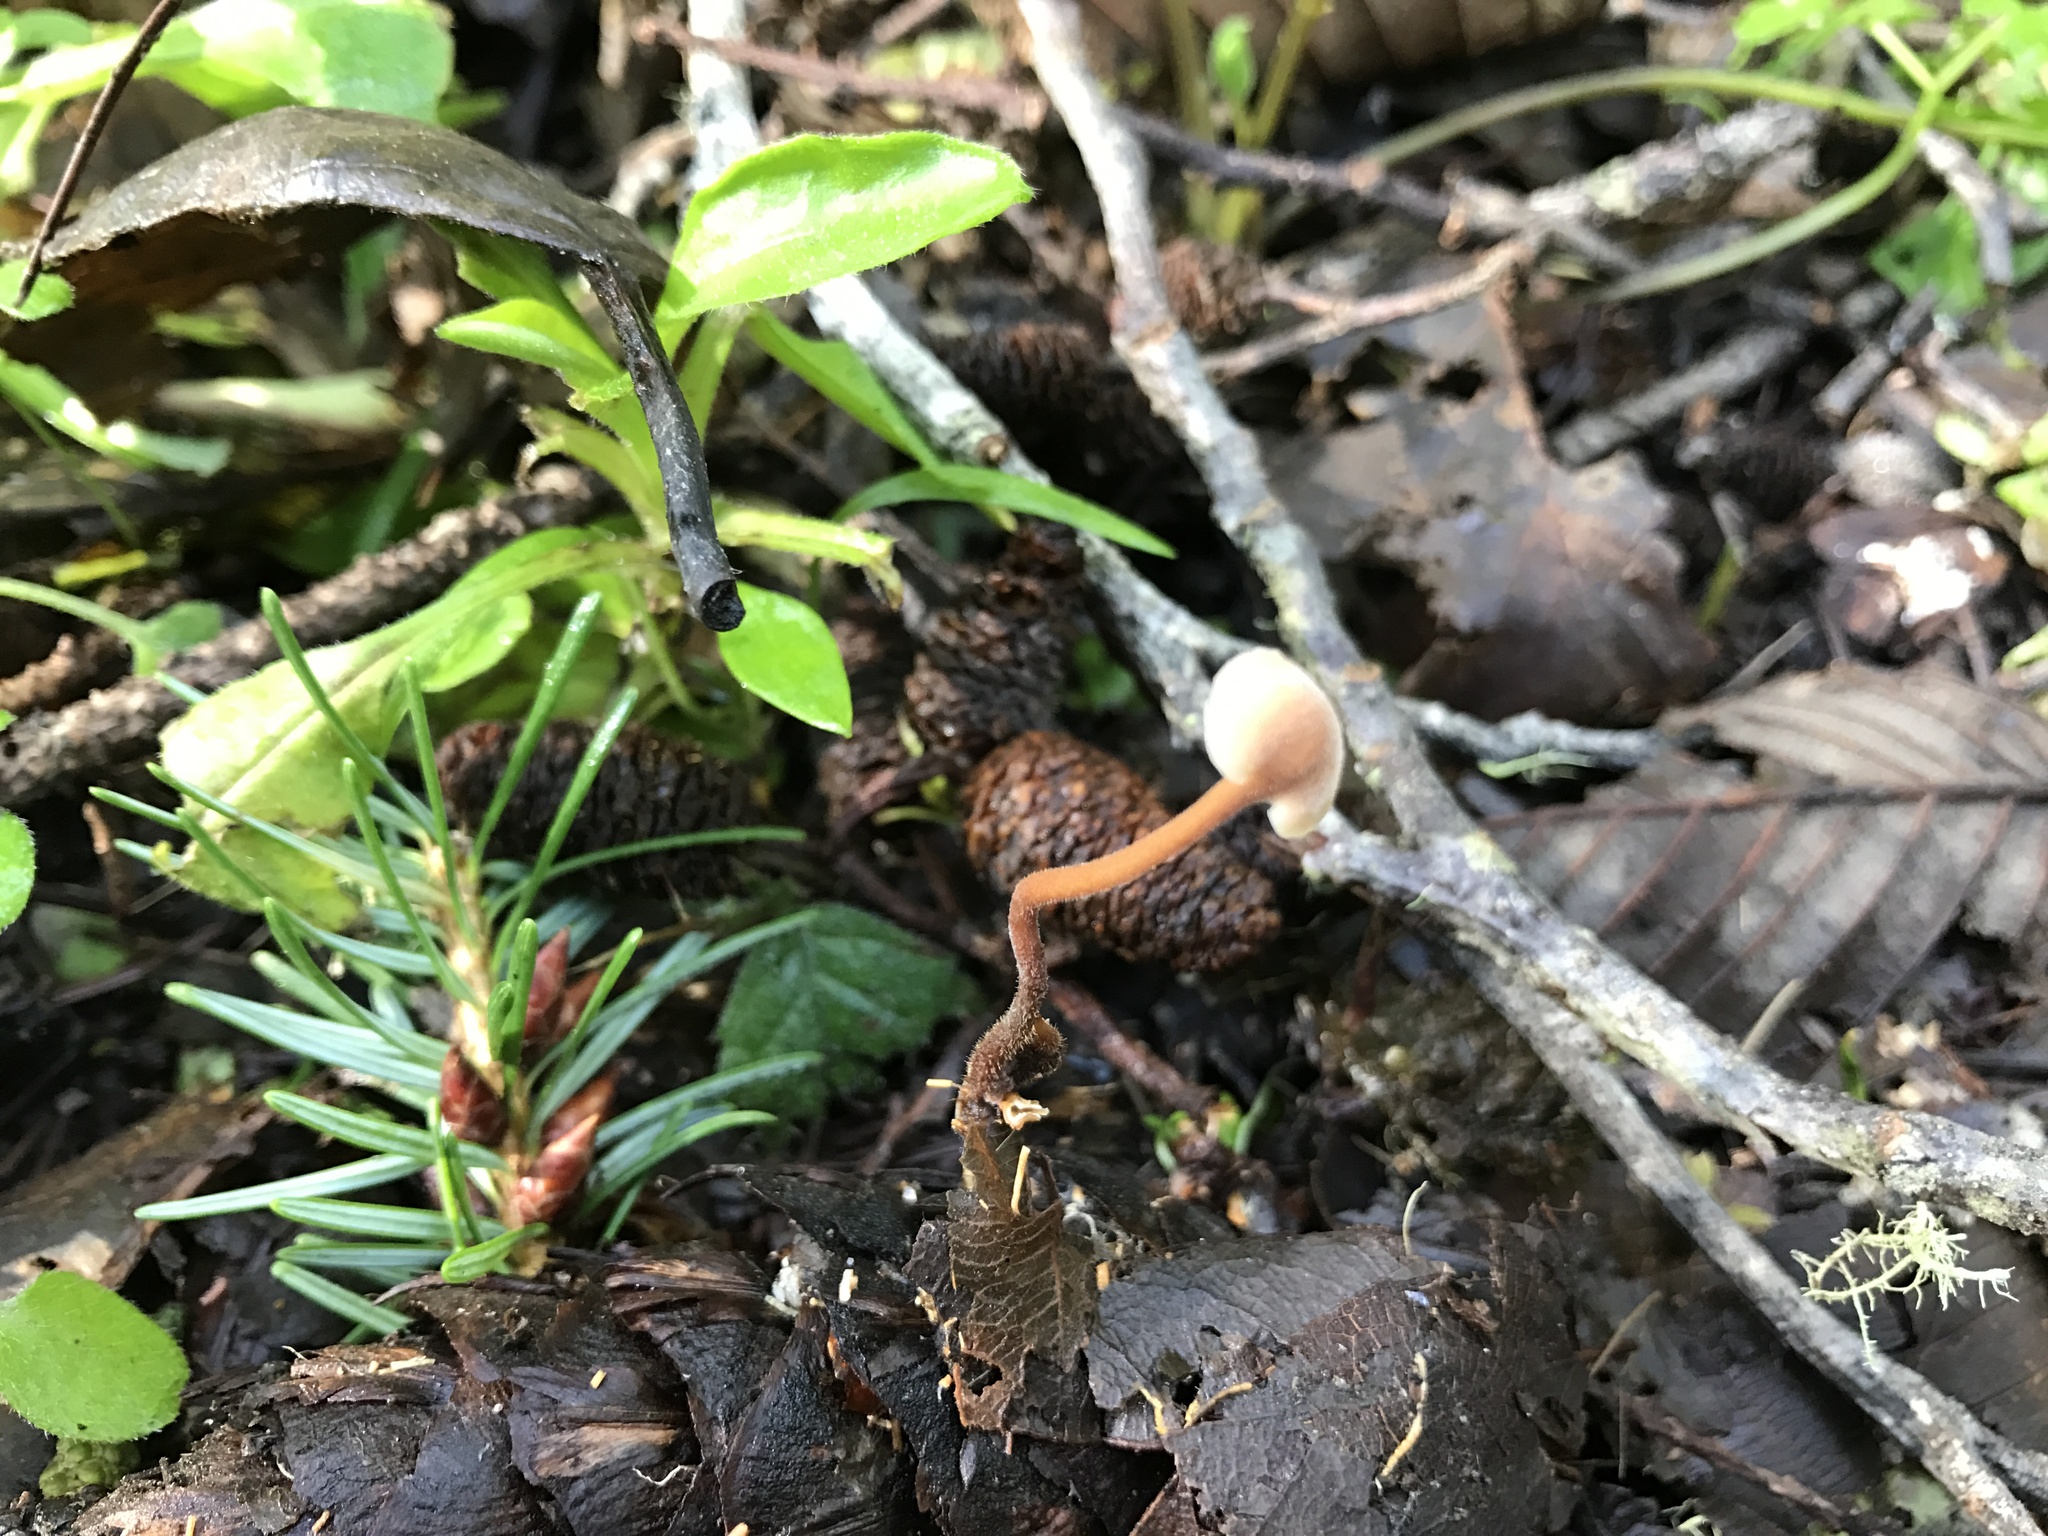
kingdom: Fungi
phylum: Basidiomycota
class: Agaricomycetes
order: Russulales
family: Auriscalpiaceae
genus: Auriscalpium
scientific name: Auriscalpium vulgare
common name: Earpick fungus
